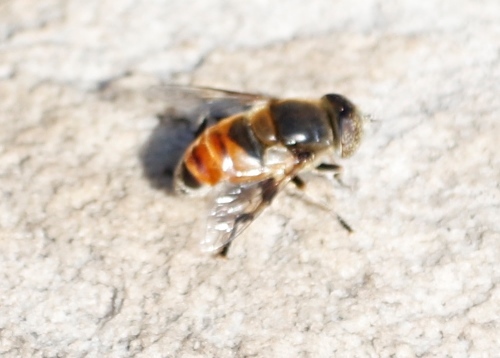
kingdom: Animalia
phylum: Arthropoda
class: Insecta
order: Diptera
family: Syrphidae
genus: Eristalinus
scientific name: Eristalinus modestus
